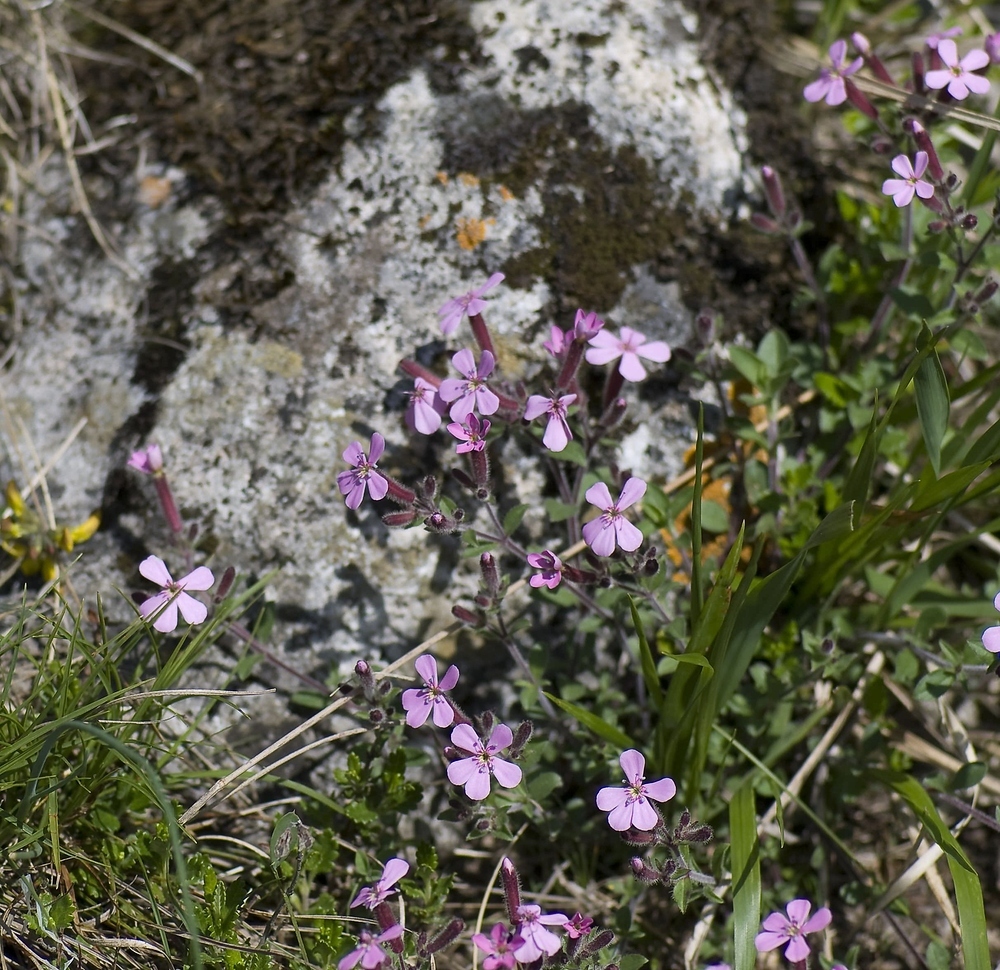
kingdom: Plantae
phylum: Tracheophyta
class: Magnoliopsida
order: Caryophyllales
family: Caryophyllaceae
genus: Saponaria
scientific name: Saponaria ocymoides
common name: Rock soapwort
